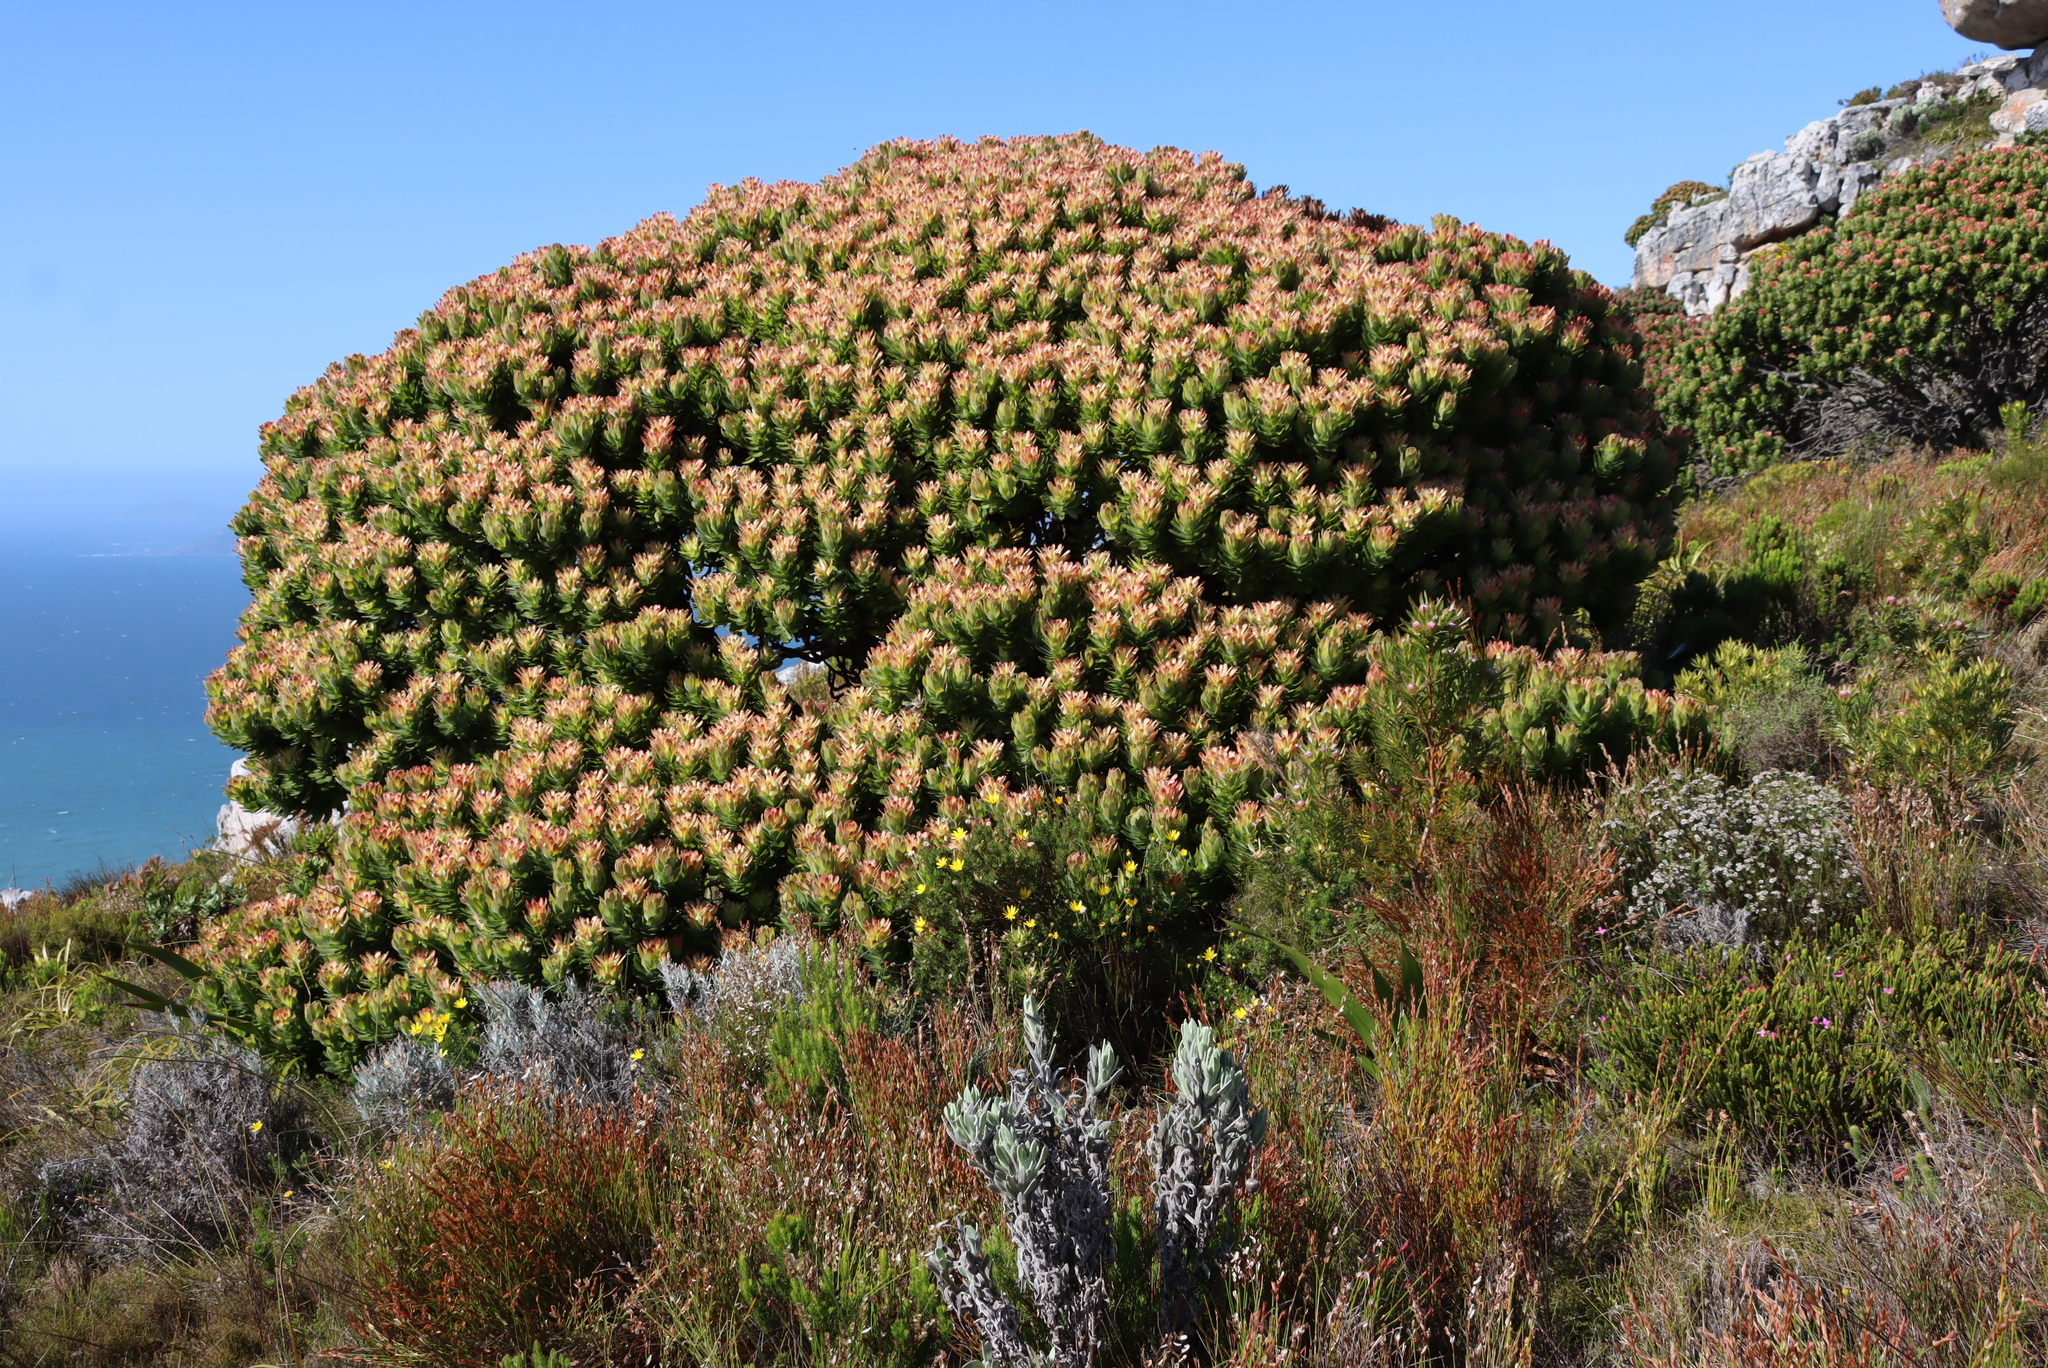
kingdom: Plantae
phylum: Tracheophyta
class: Magnoliopsida
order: Proteales
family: Proteaceae
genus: Mimetes
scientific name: Mimetes fimbriifolius
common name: Fringed bottlebrush
